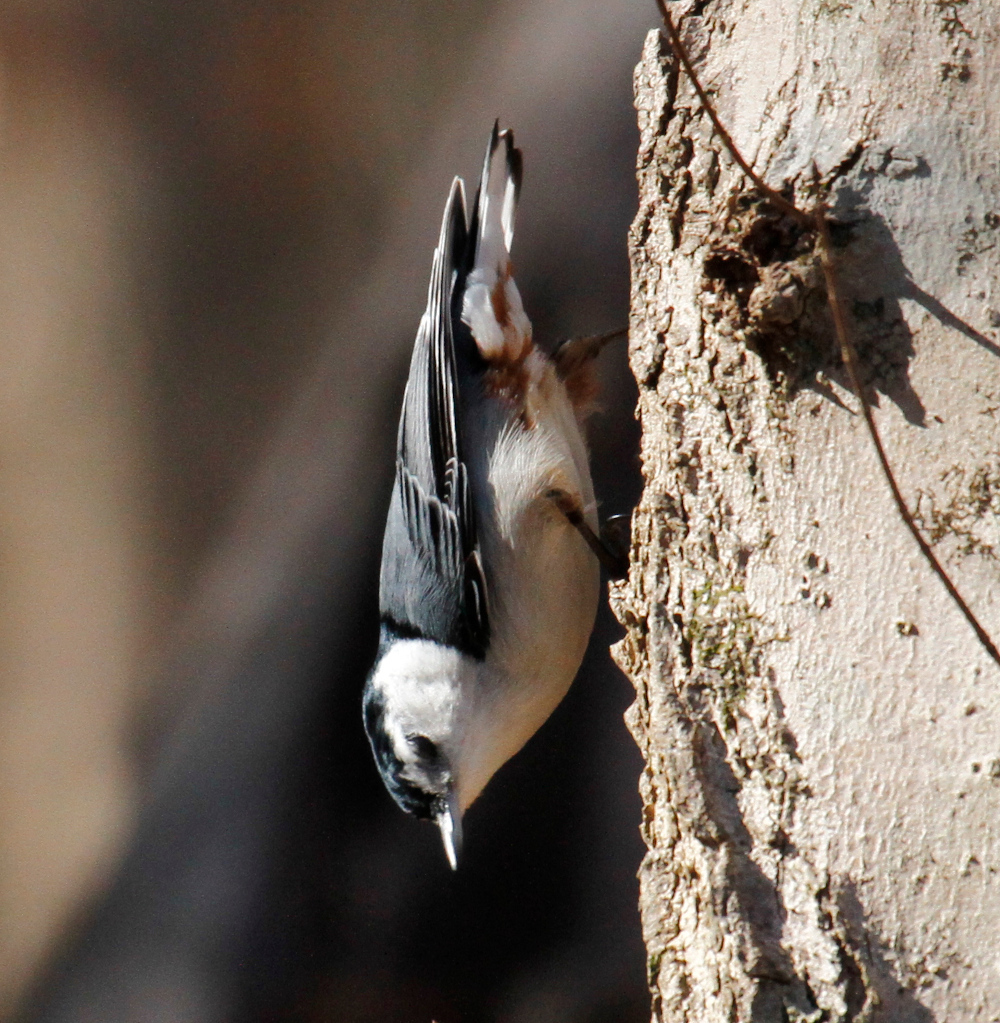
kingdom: Animalia
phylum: Chordata
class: Aves
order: Passeriformes
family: Sittidae
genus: Sitta
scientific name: Sitta carolinensis
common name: White-breasted nuthatch
